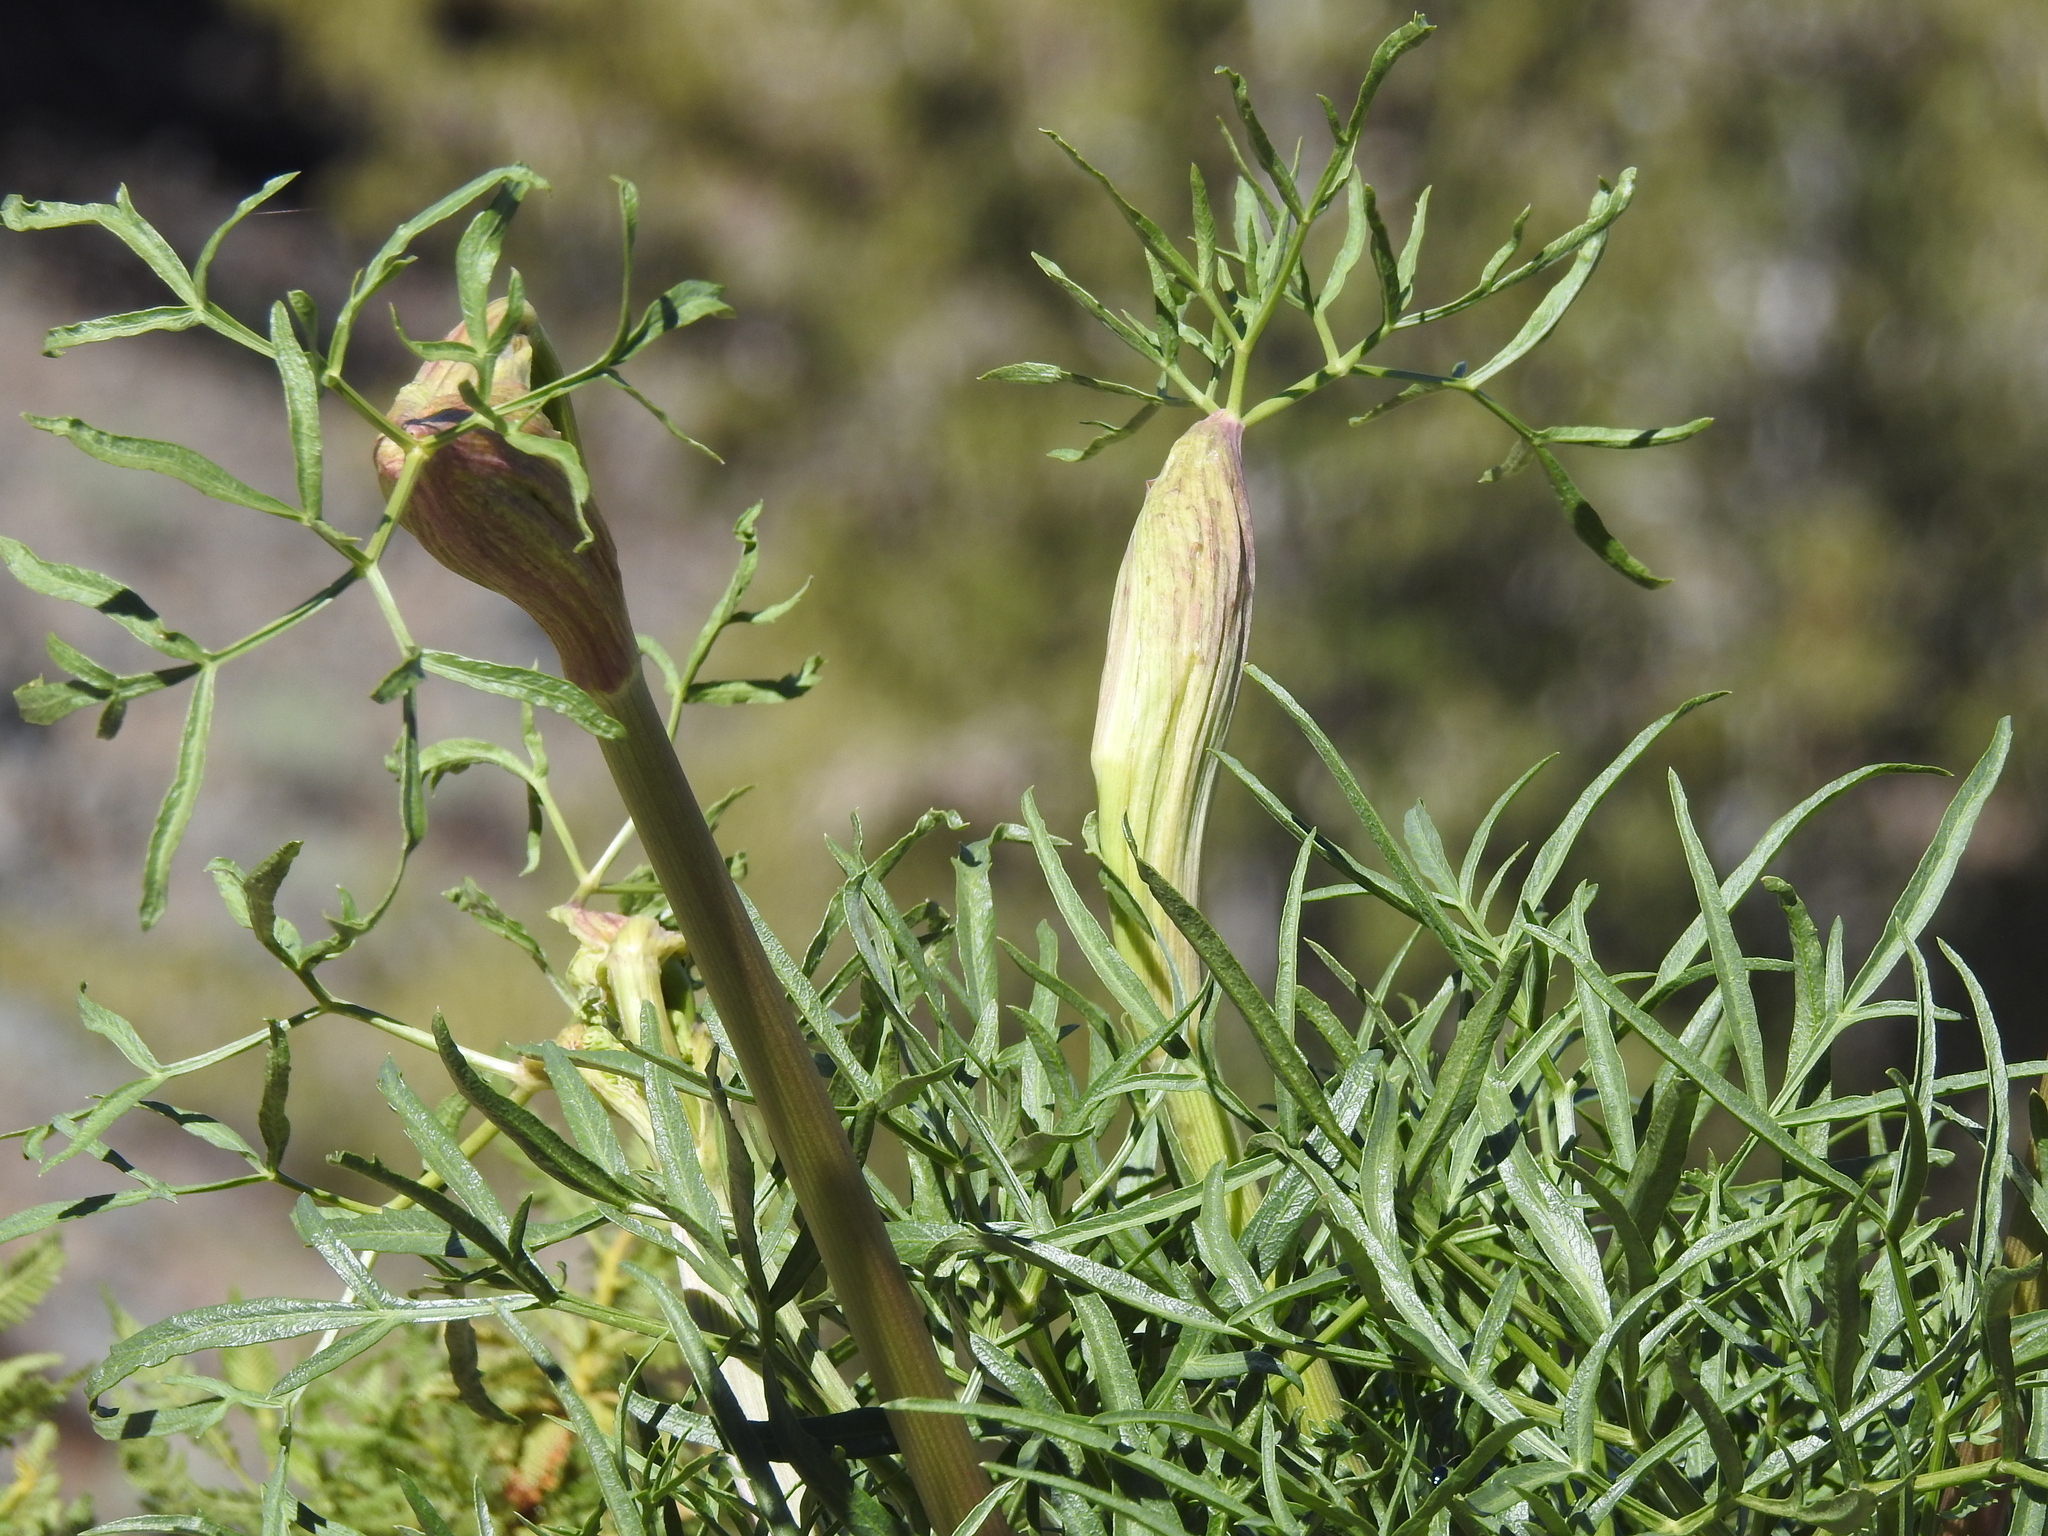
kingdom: Plantae
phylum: Tracheophyta
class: Magnoliopsida
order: Apiales
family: Apiaceae
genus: Angelica
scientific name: Angelica lineariloba
